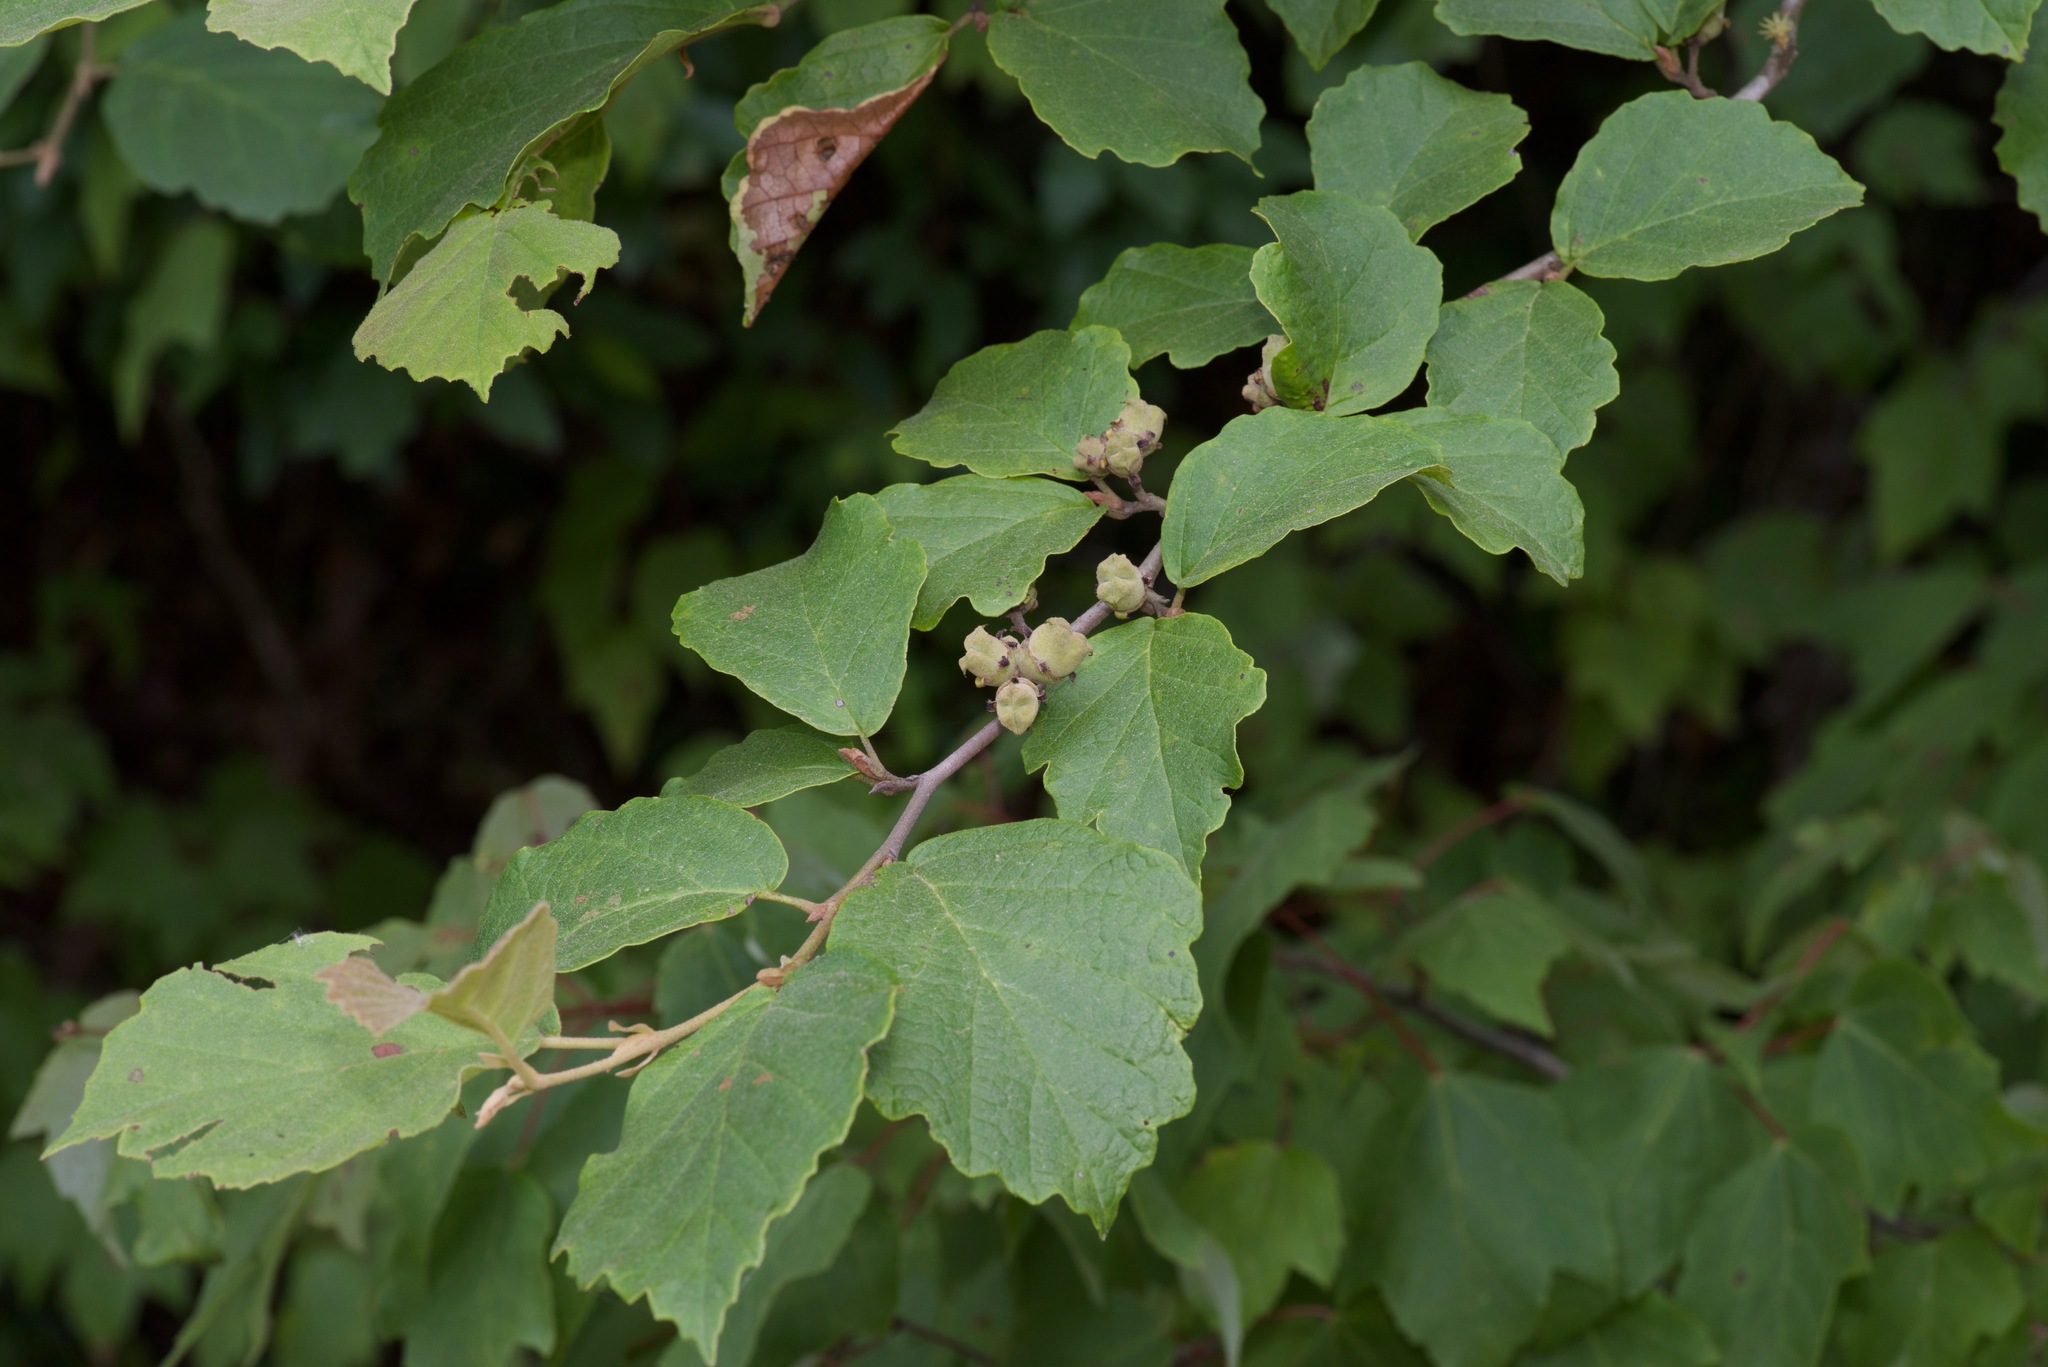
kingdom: Plantae
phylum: Tracheophyta
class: Magnoliopsida
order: Saxifragales
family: Hamamelidaceae
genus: Hamamelis
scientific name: Hamamelis virginiana
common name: Witch-hazel
